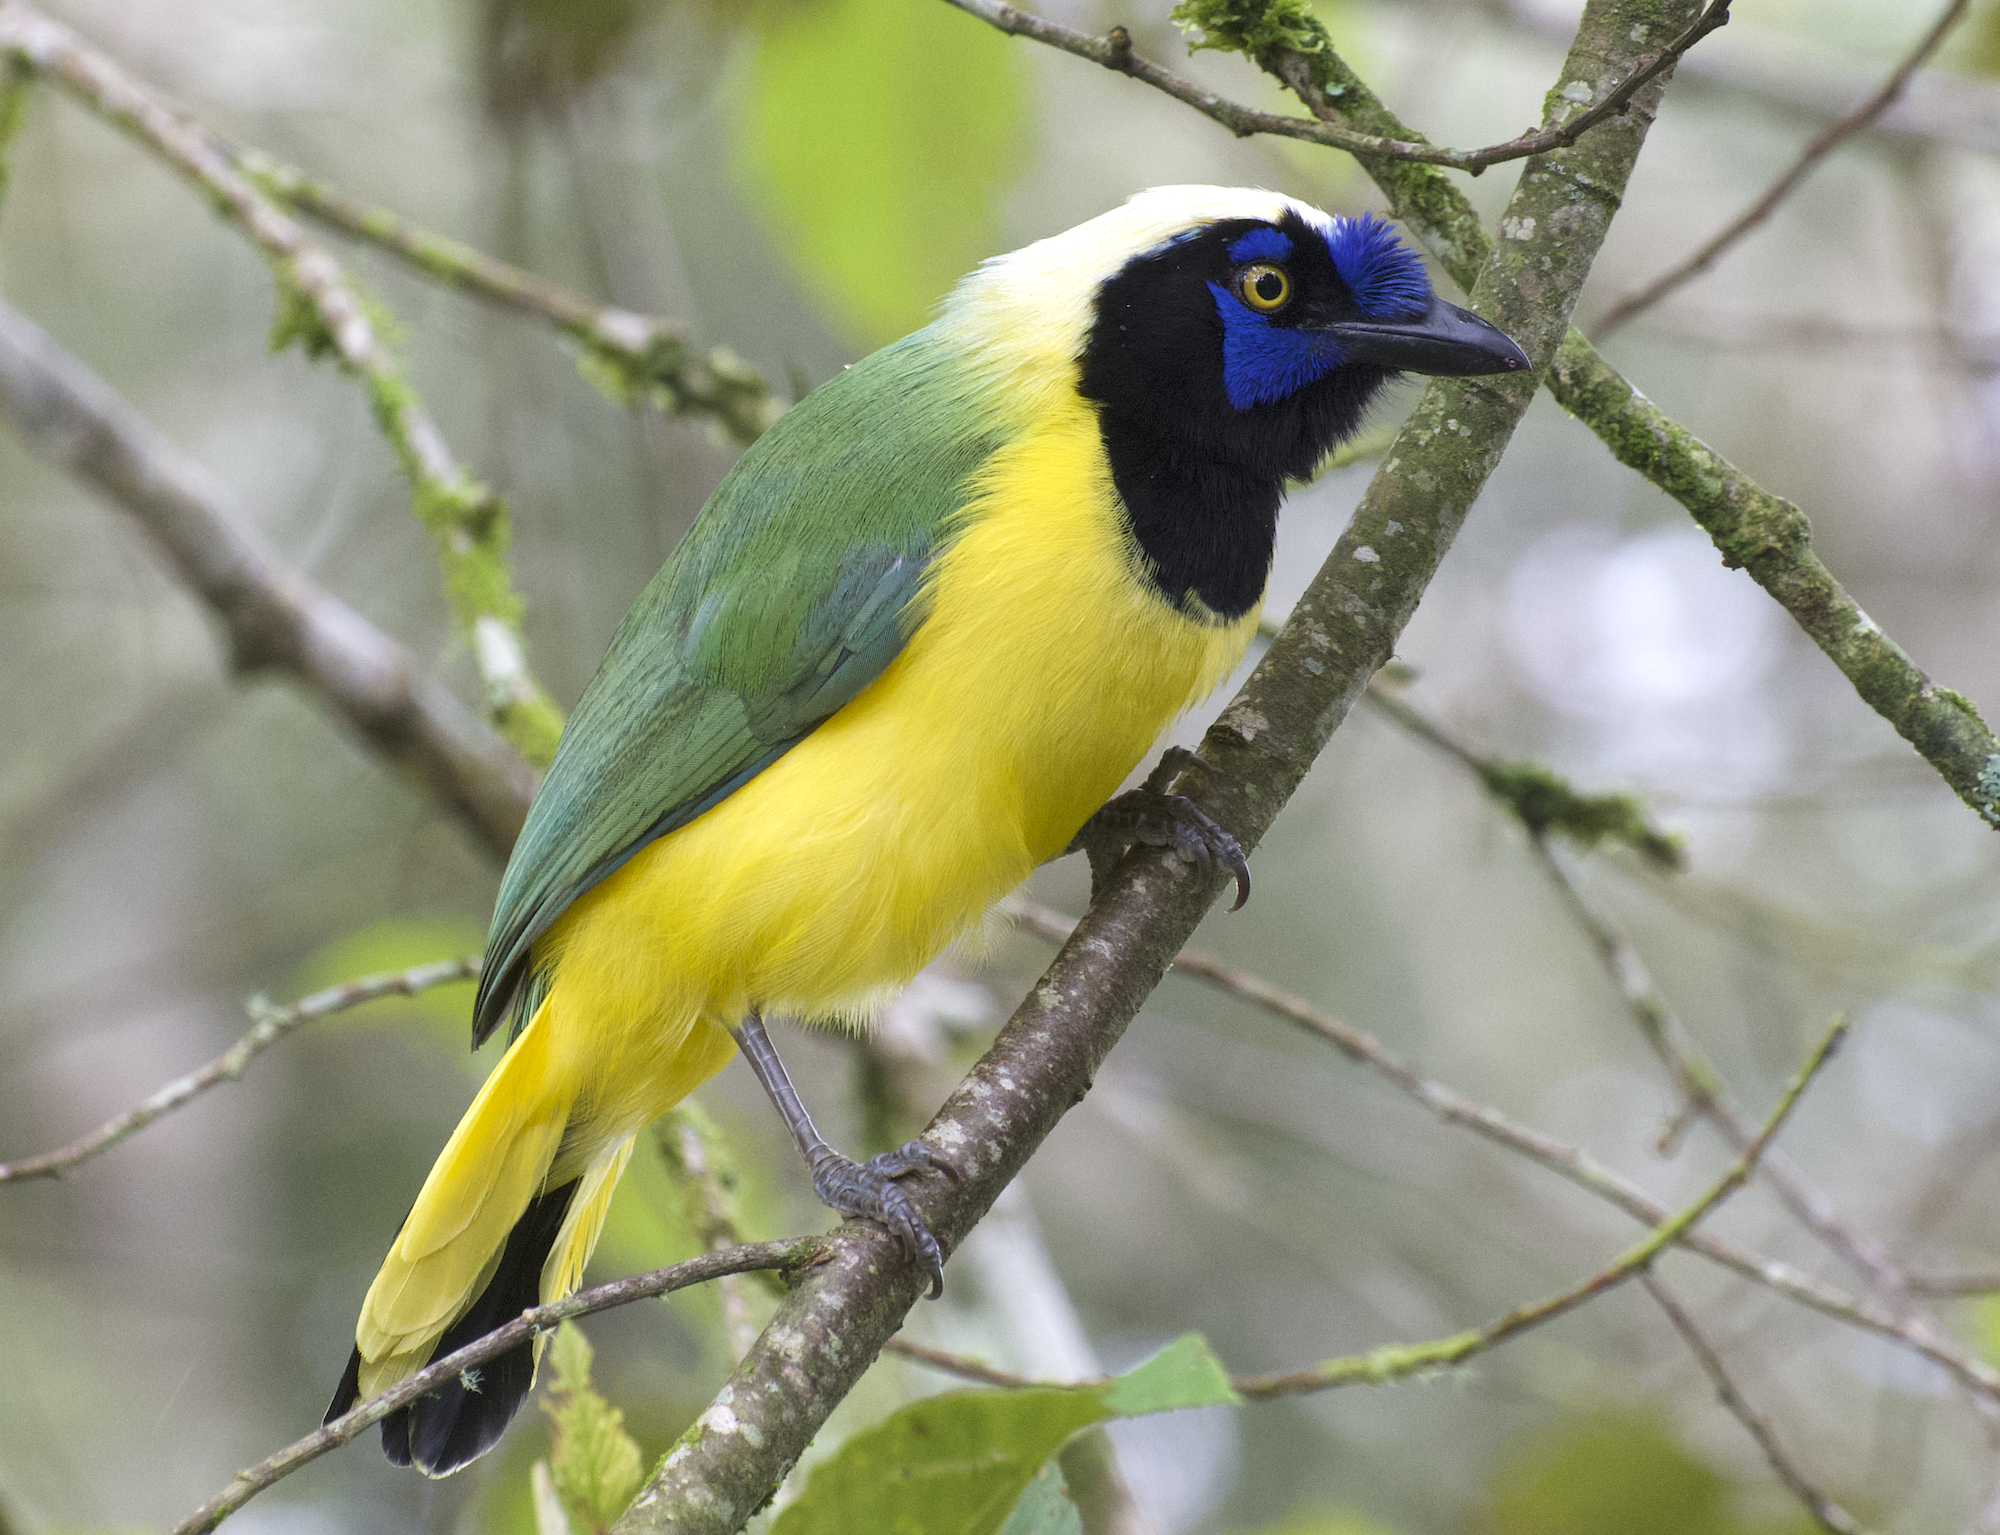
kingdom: Animalia
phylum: Chordata
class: Aves
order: Passeriformes
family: Corvidae
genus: Cyanocorax
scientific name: Cyanocorax yncas
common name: Green jay
